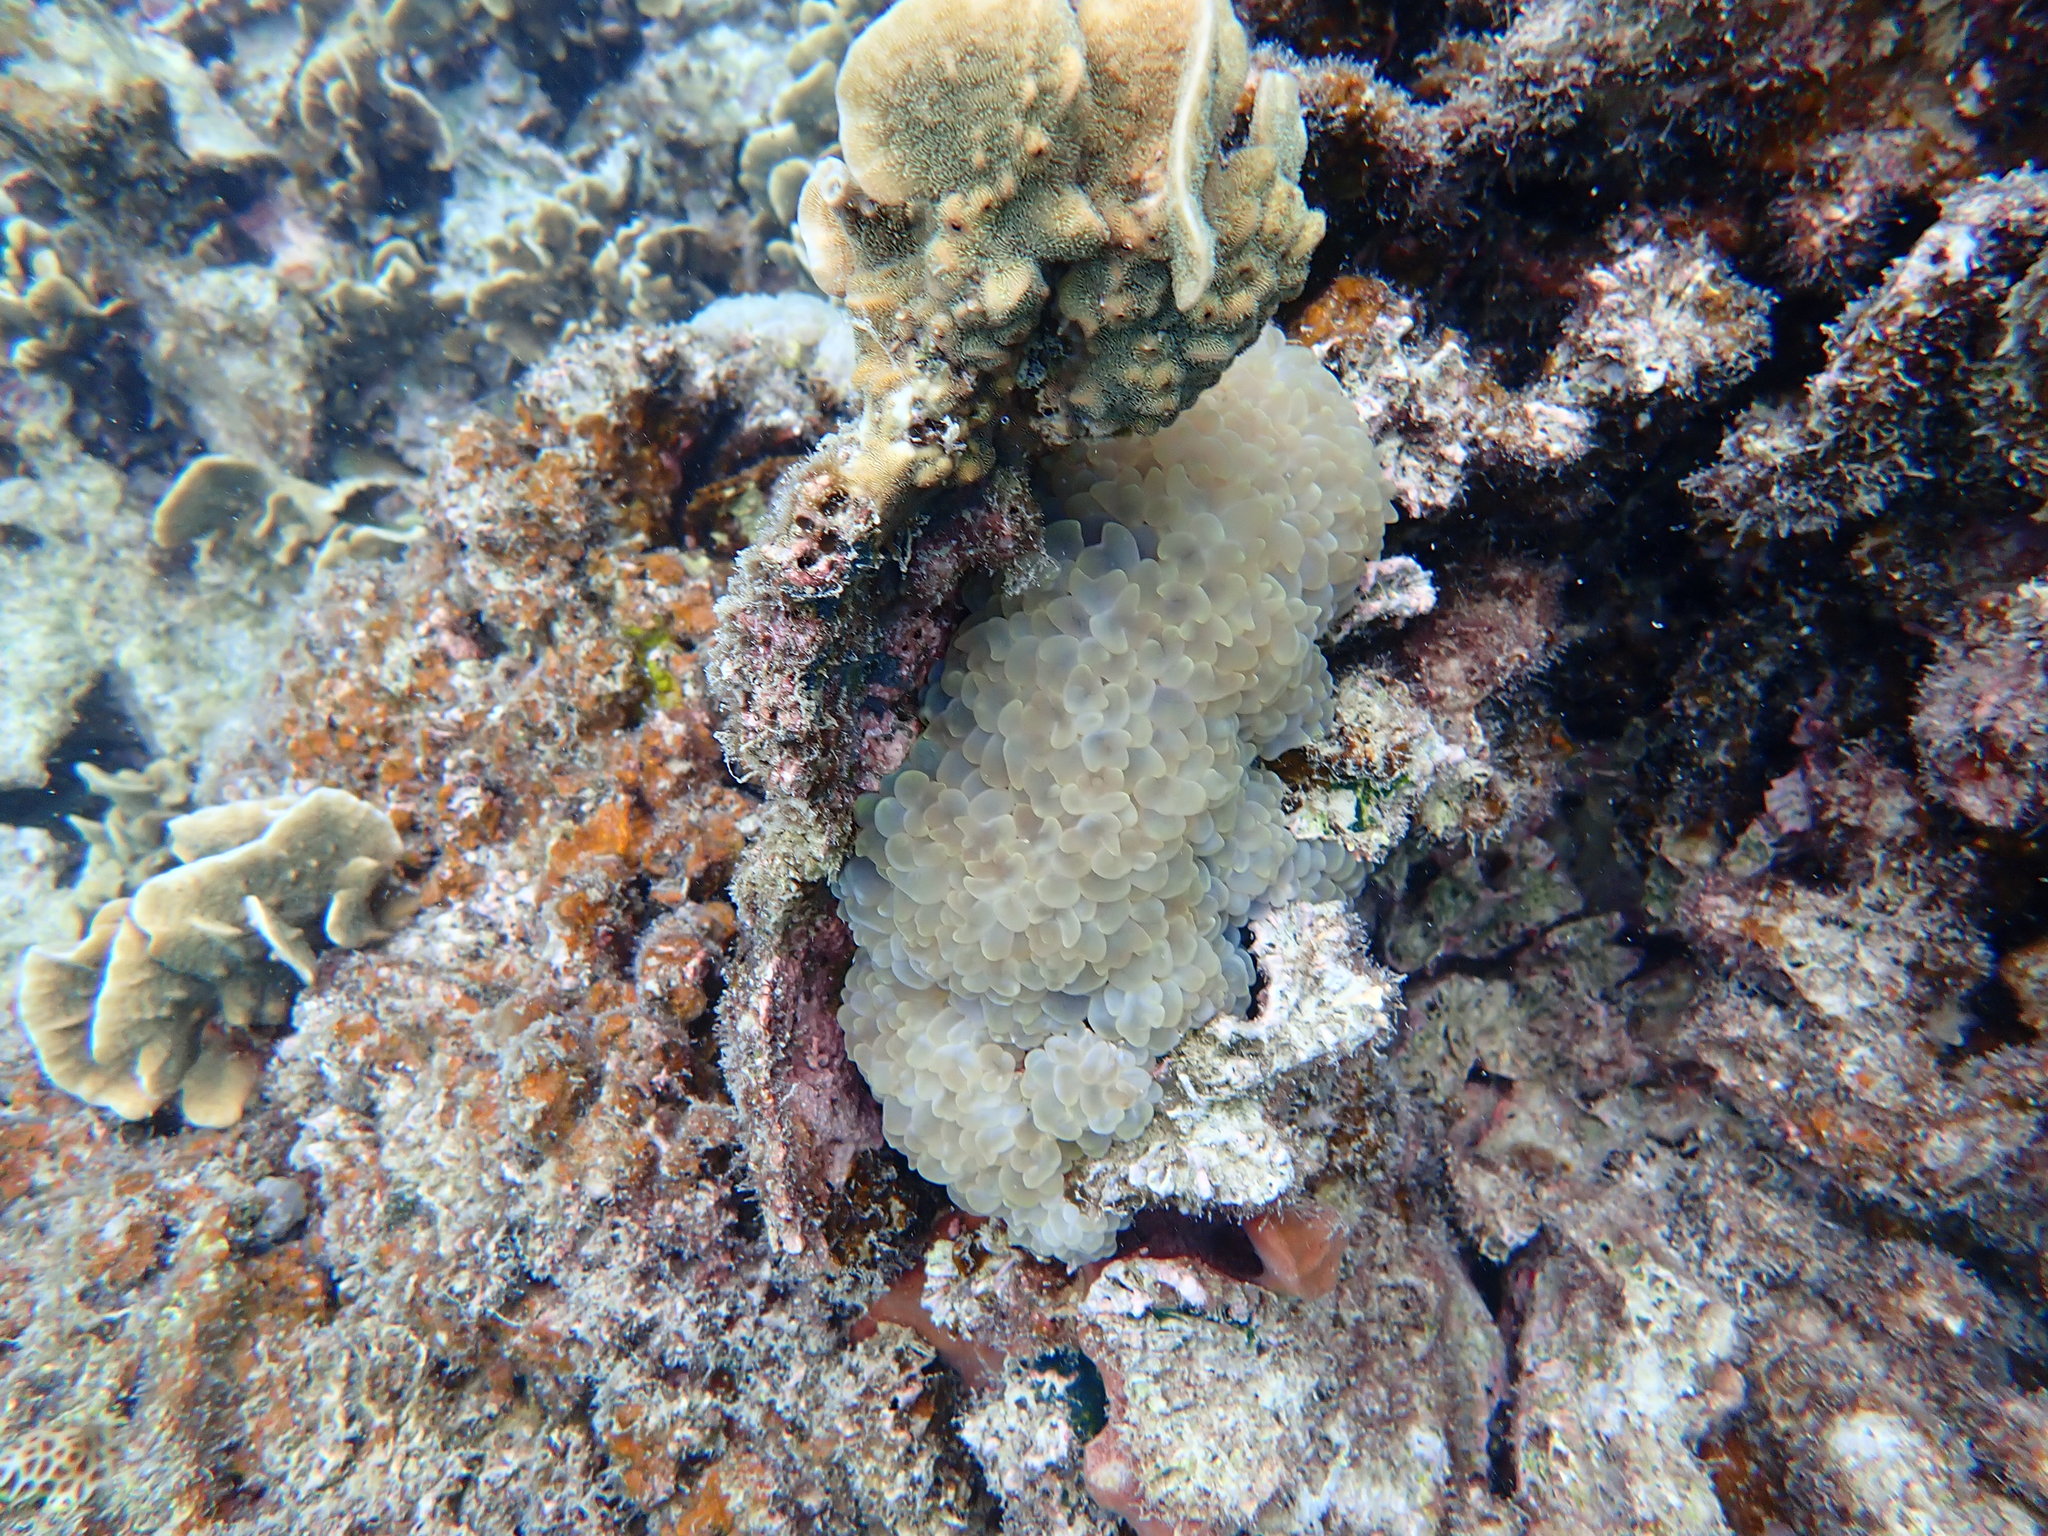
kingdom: Animalia
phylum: Cnidaria
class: Anthozoa
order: Scleractinia
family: Plerogyridae
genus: Plerogyra
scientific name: Plerogyra sinuosa
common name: Bubble coral
